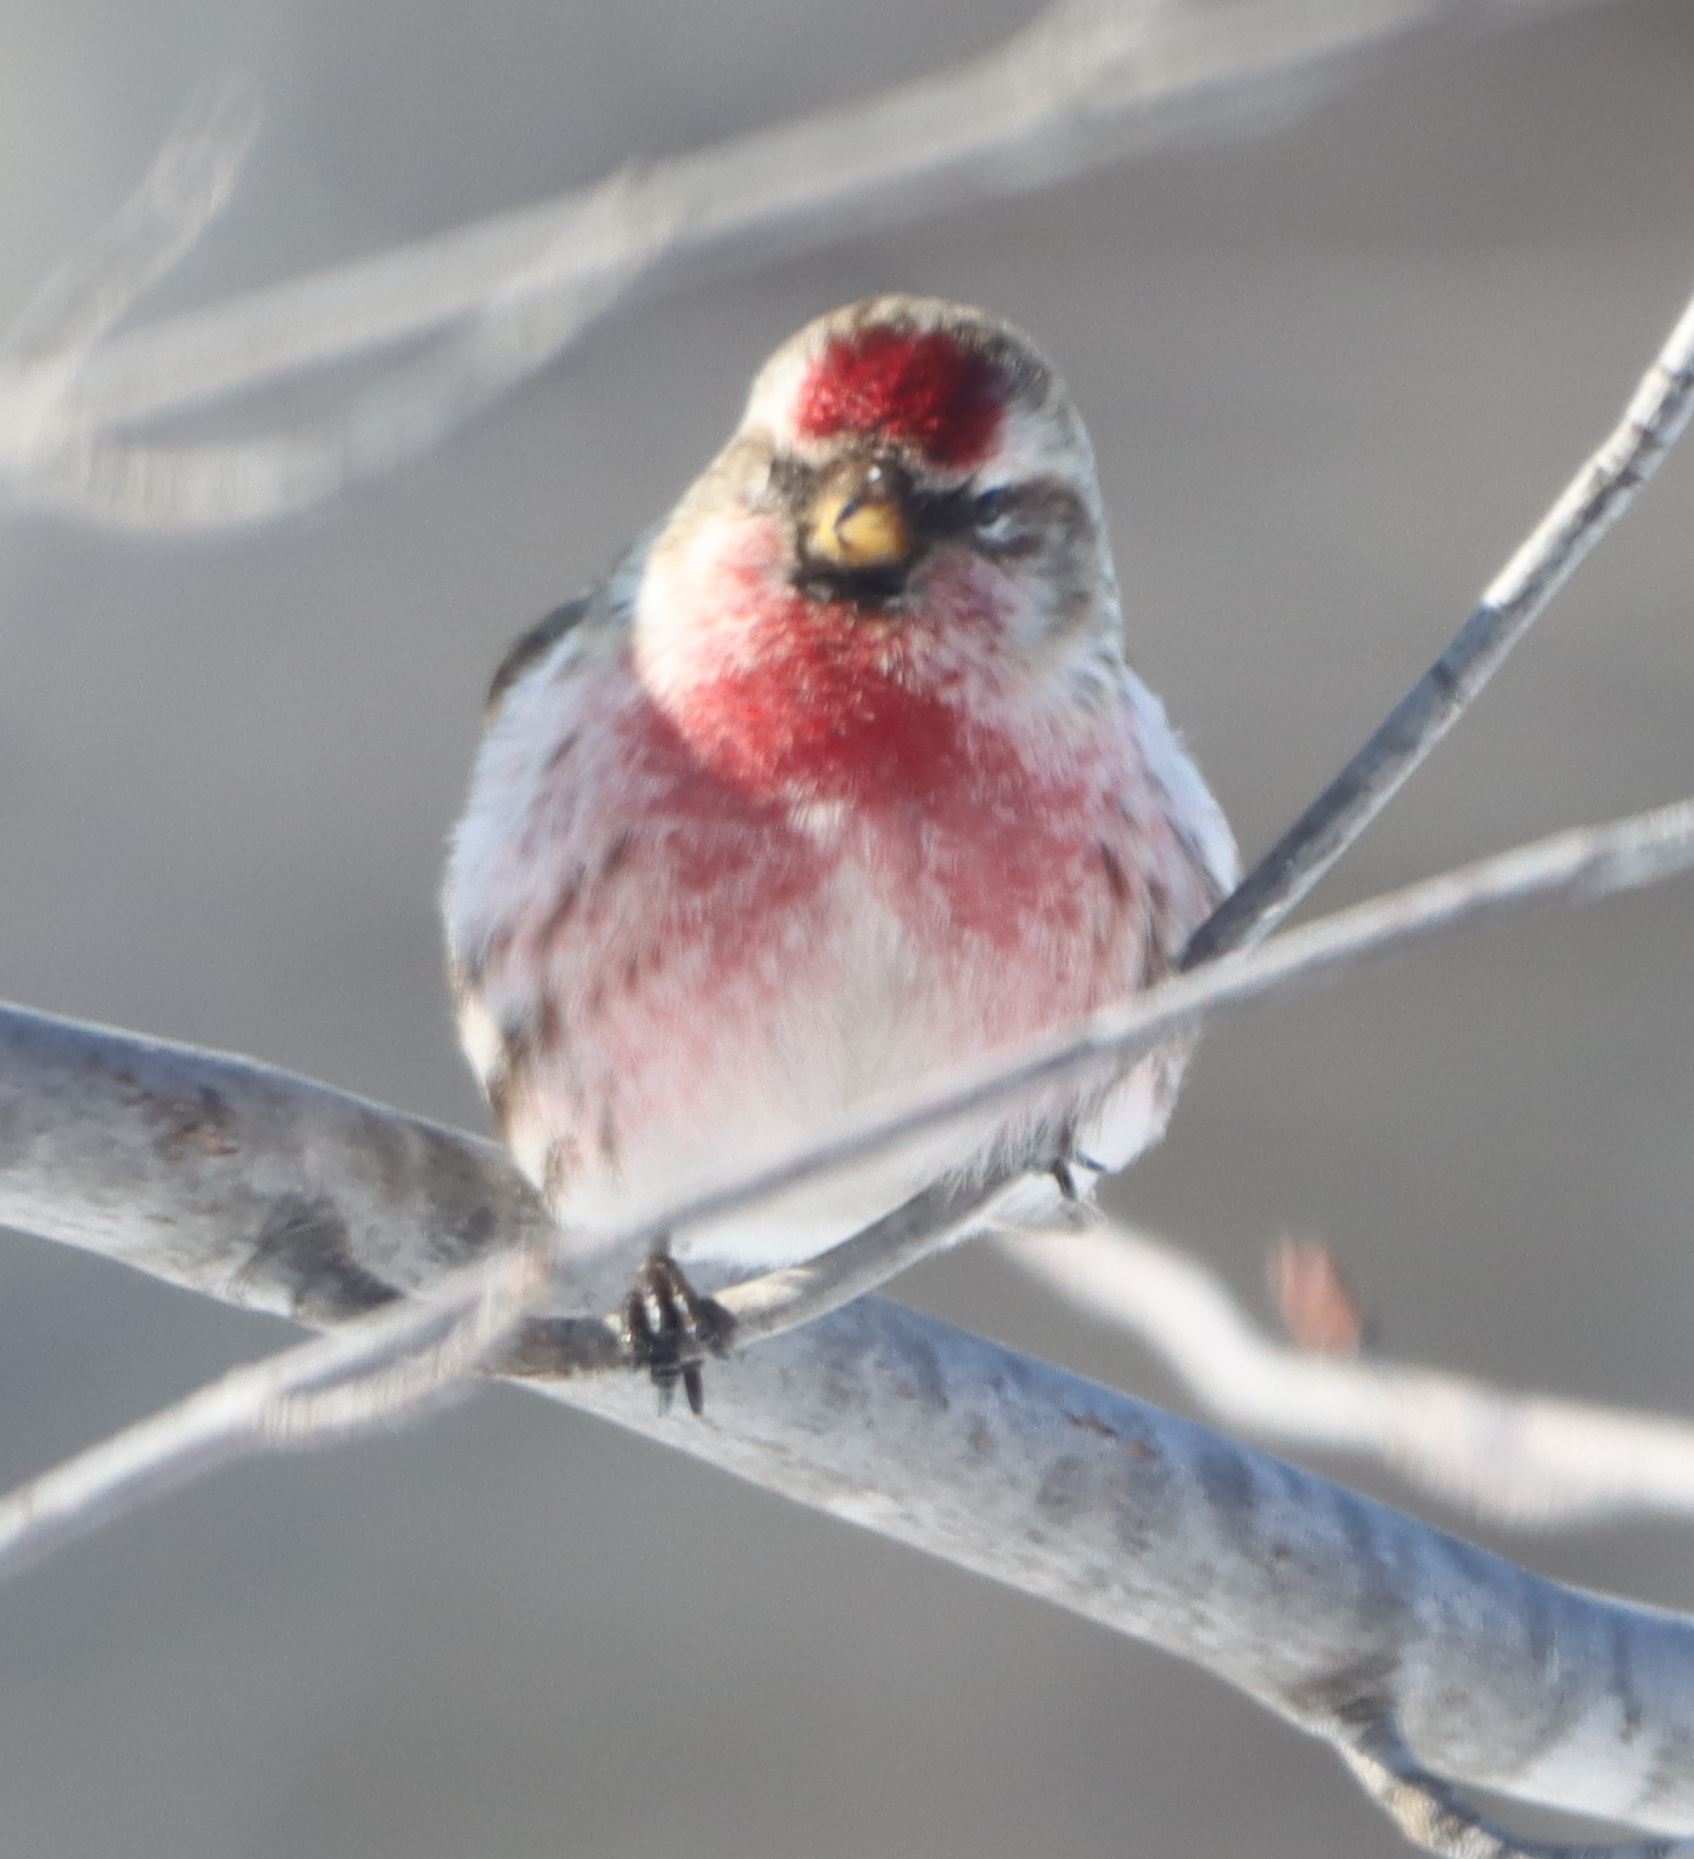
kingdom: Animalia
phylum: Chordata
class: Aves
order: Passeriformes
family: Fringillidae
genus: Acanthis
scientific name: Acanthis flammea
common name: Common redpoll
